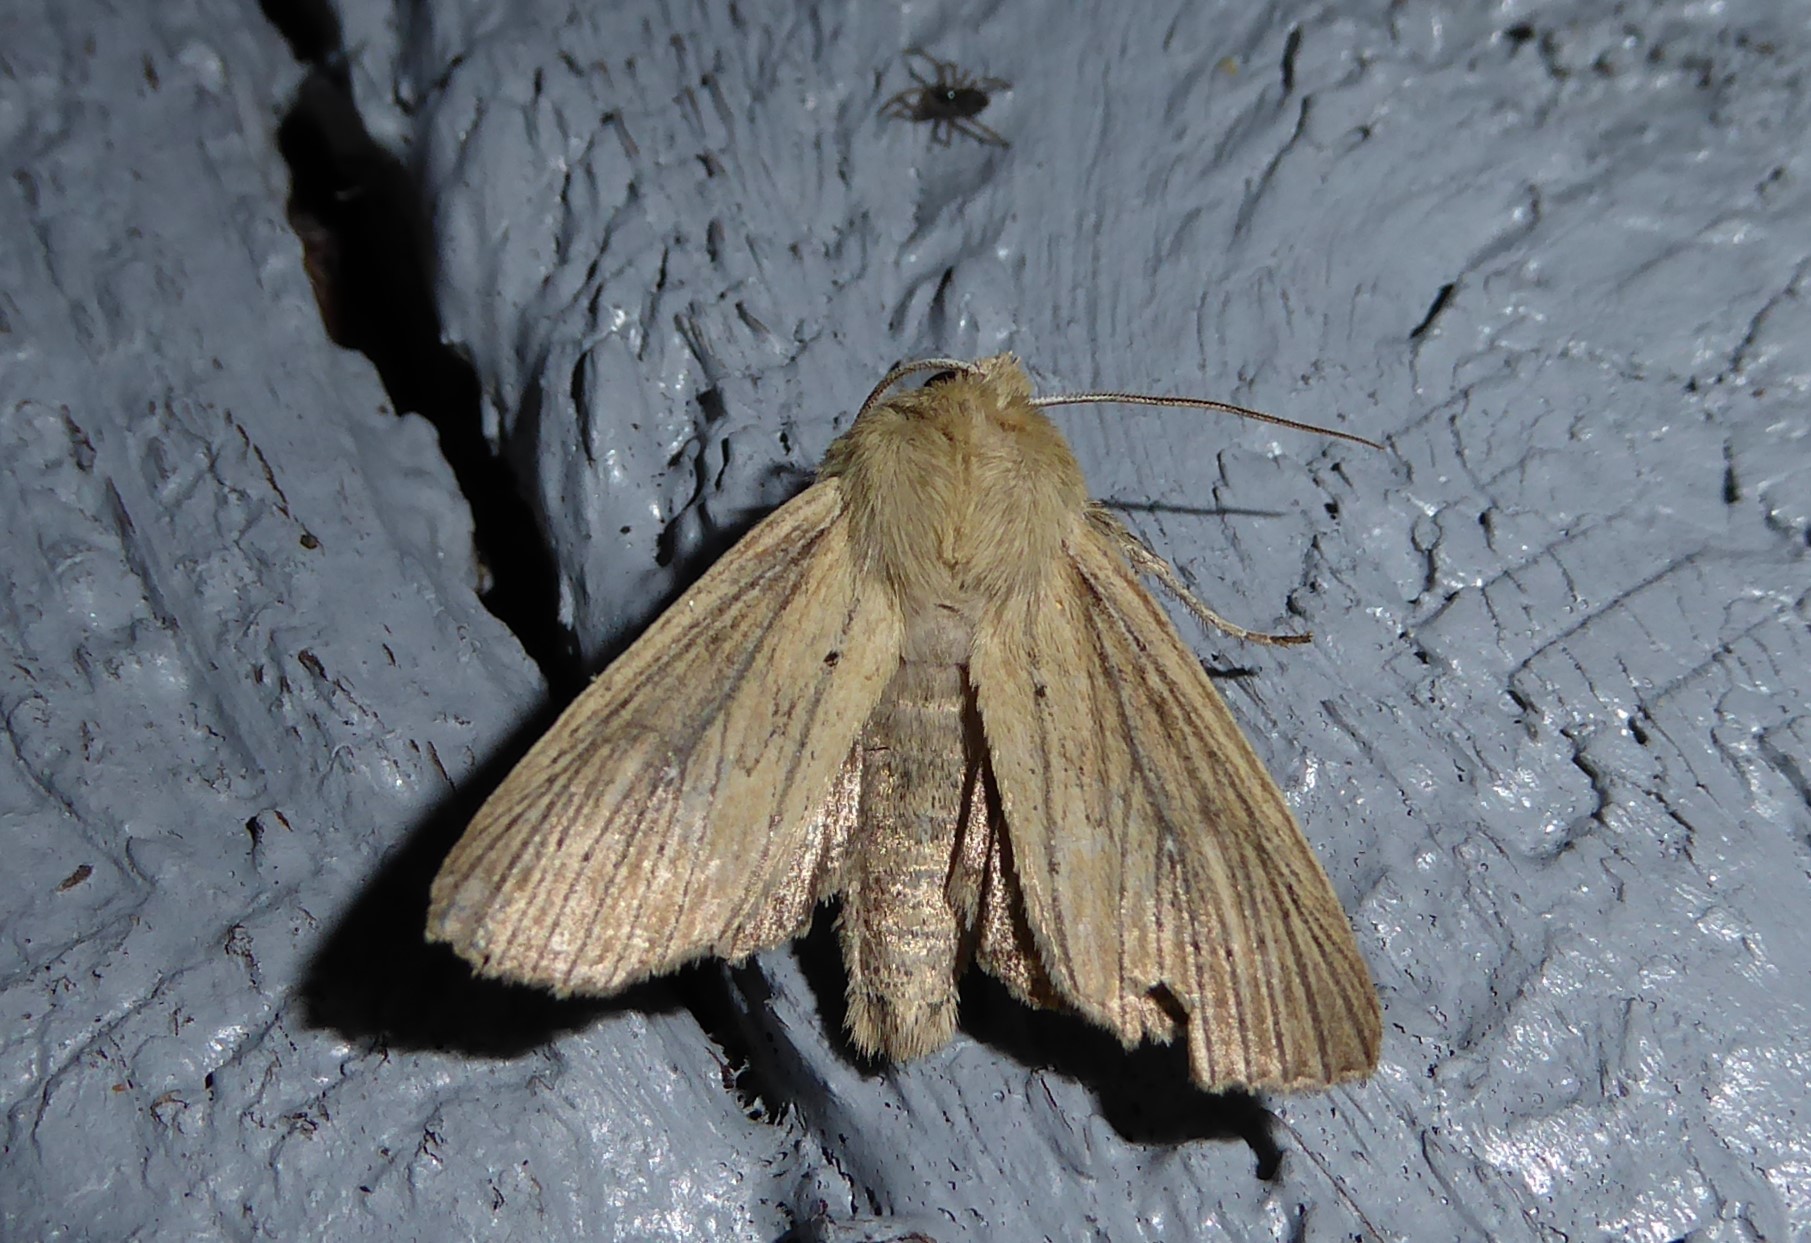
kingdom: Animalia
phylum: Arthropoda
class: Insecta
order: Lepidoptera
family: Noctuidae
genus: Ichneutica
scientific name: Ichneutica arotis
